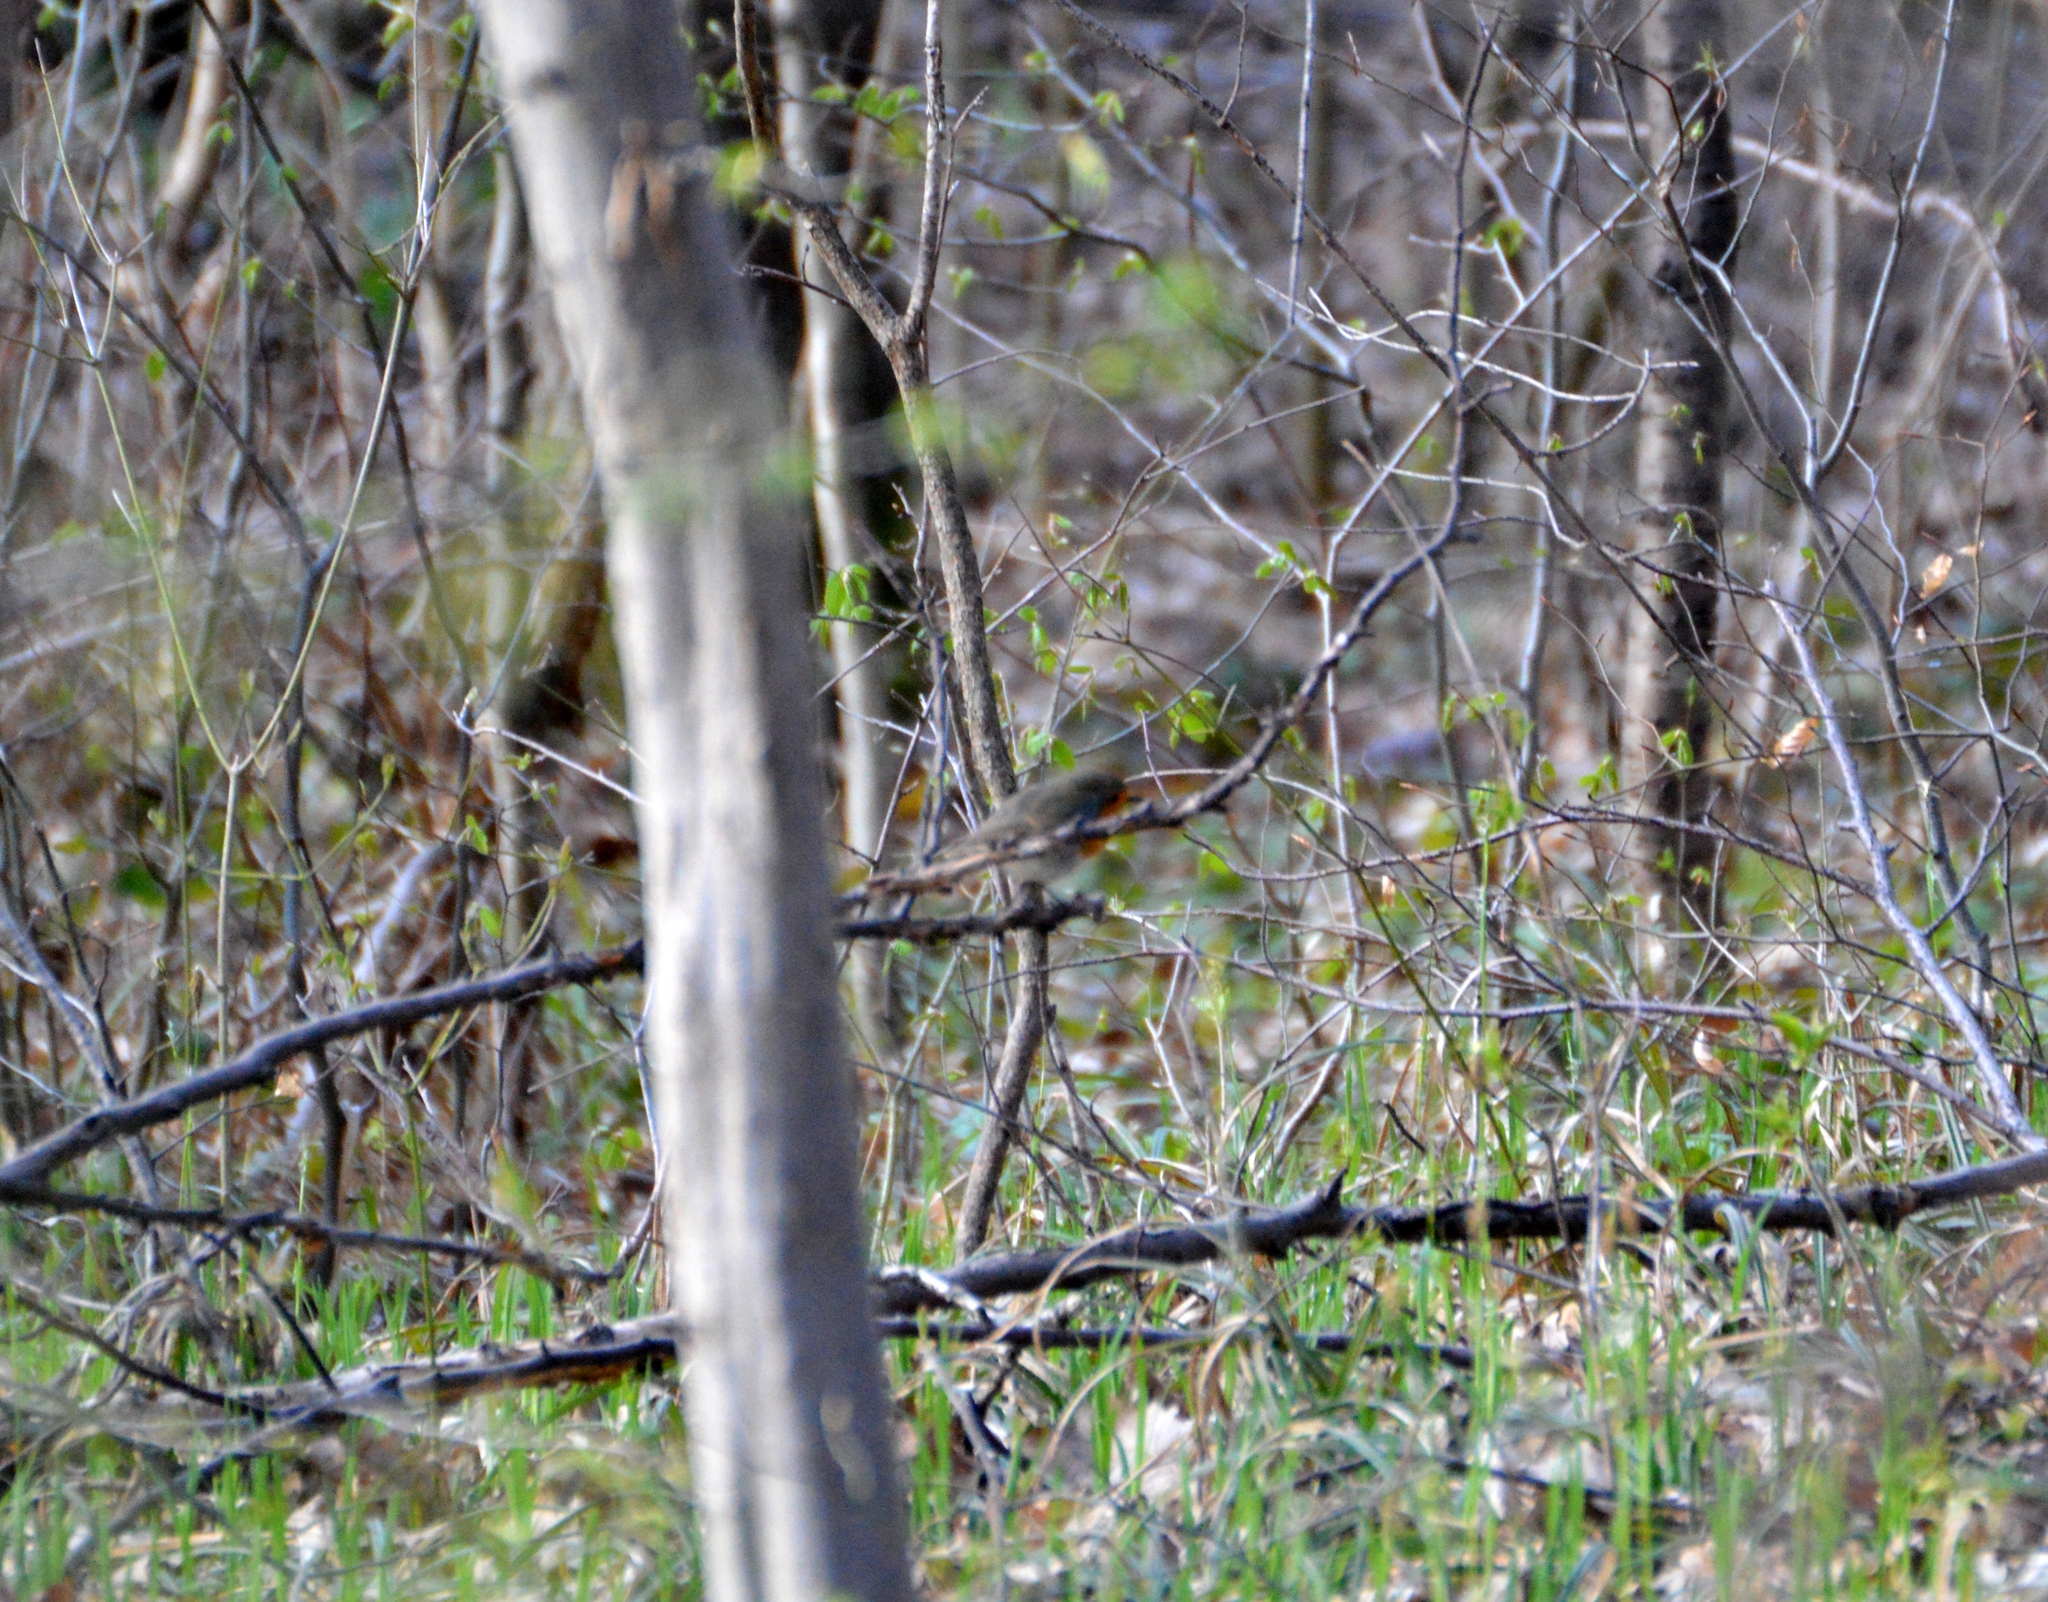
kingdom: Animalia
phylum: Chordata
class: Aves
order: Passeriformes
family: Muscicapidae
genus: Erithacus
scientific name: Erithacus rubecula
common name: European robin
